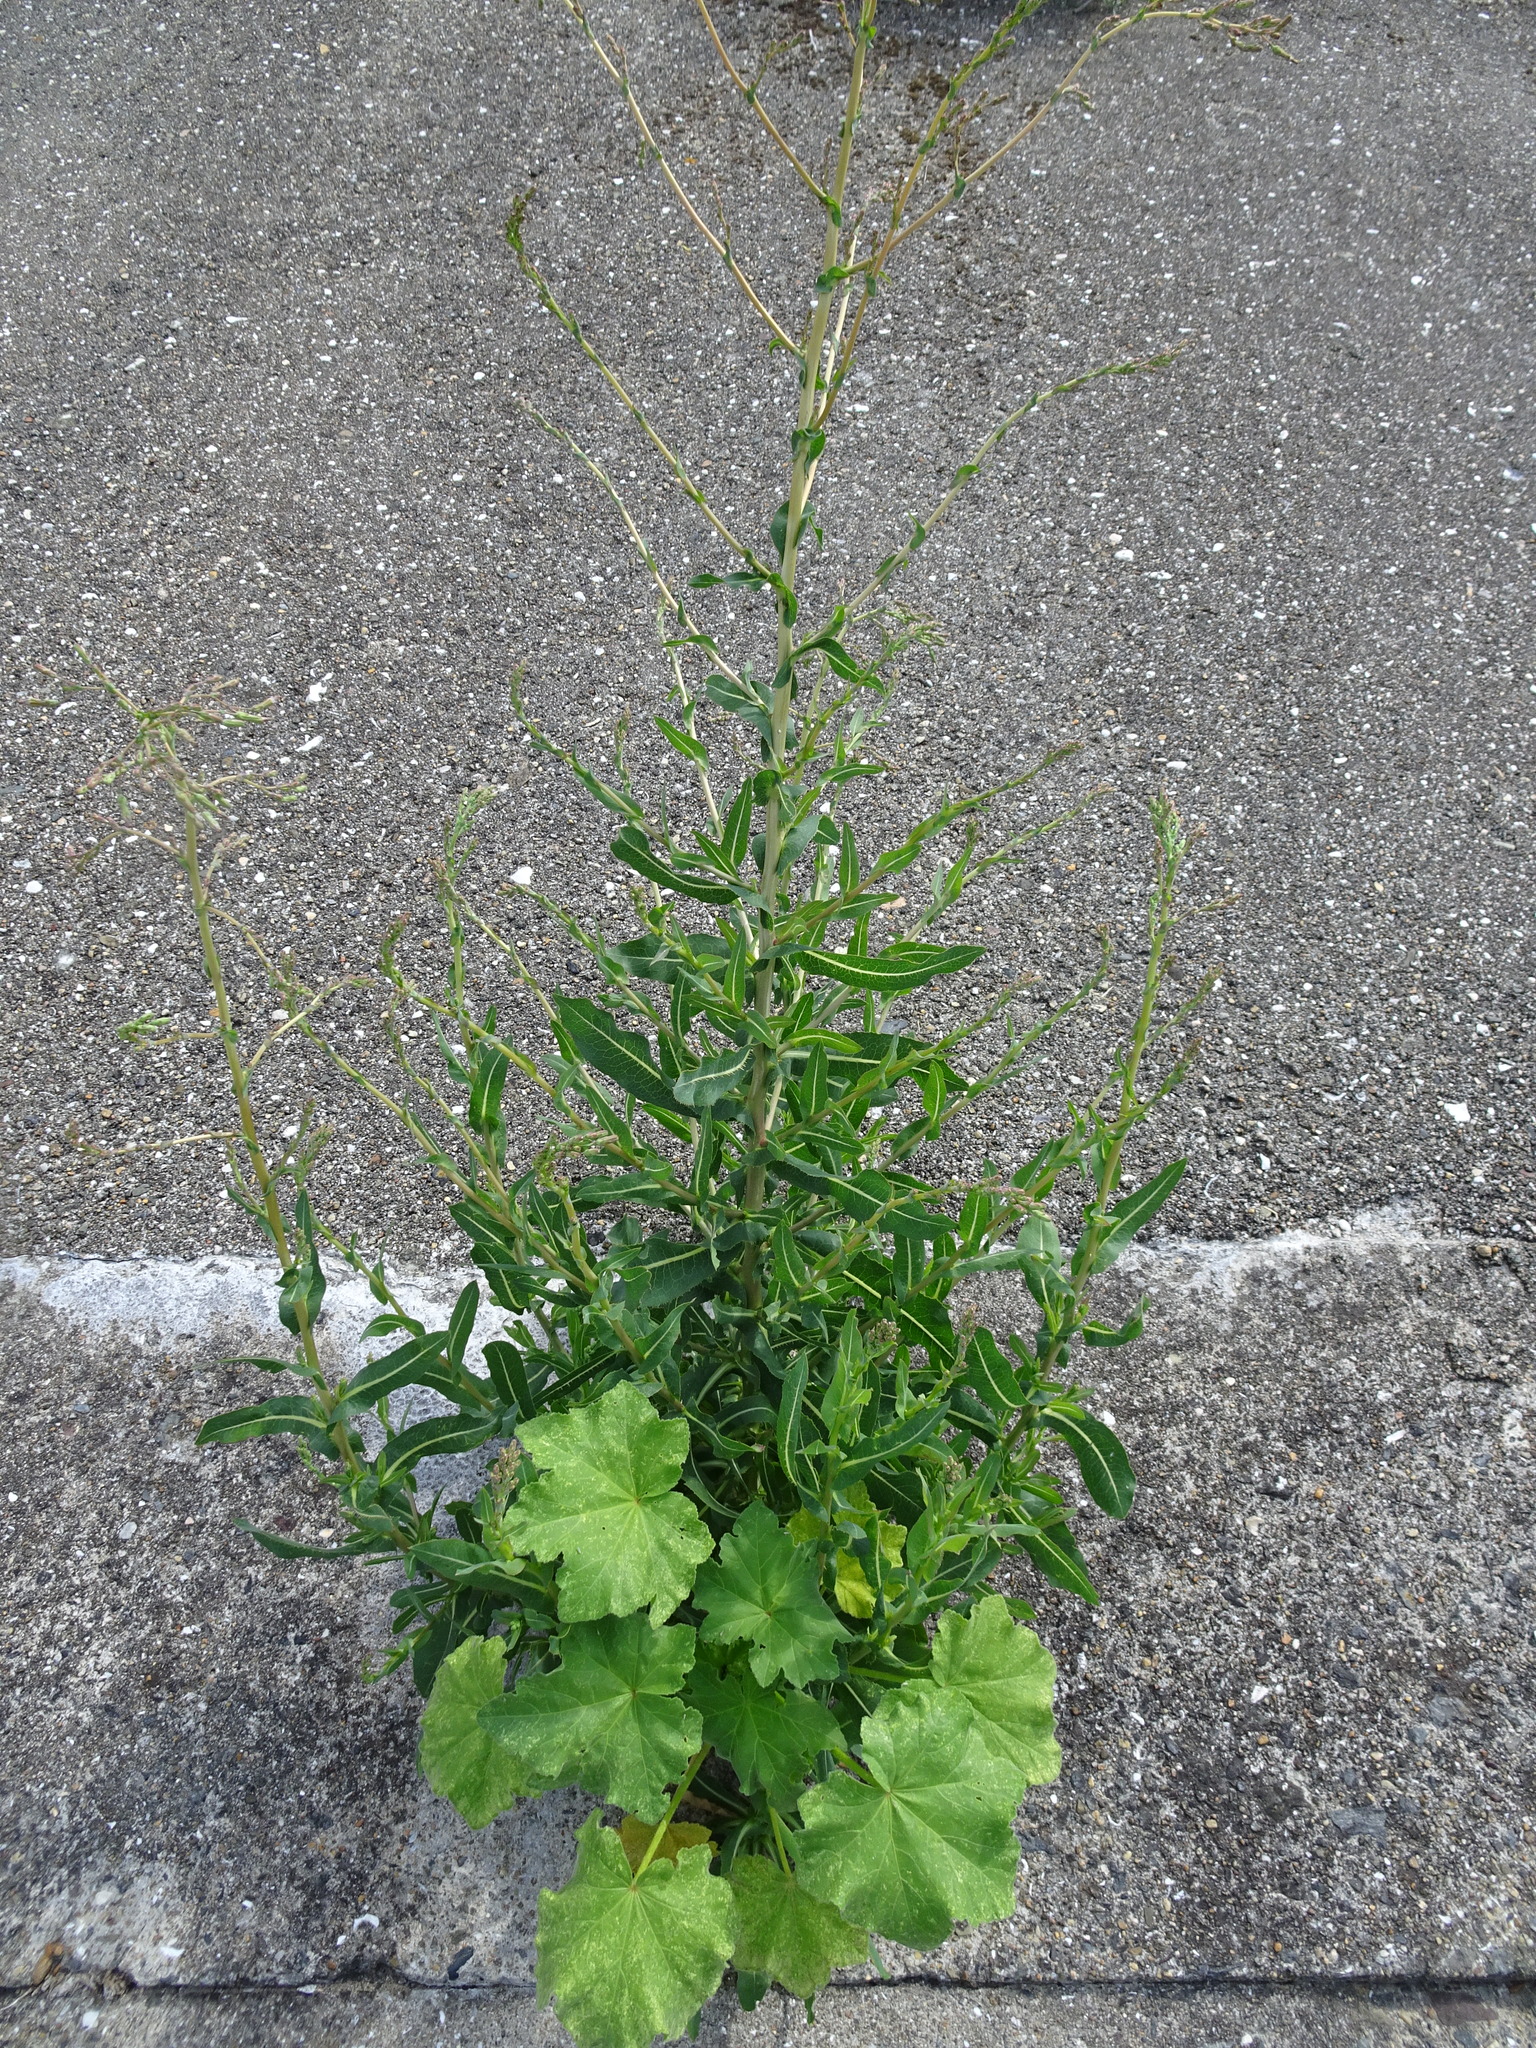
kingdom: Plantae
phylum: Tracheophyta
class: Magnoliopsida
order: Asterales
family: Asteraceae
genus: Lactuca
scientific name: Lactuca serriola
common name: Prickly lettuce
